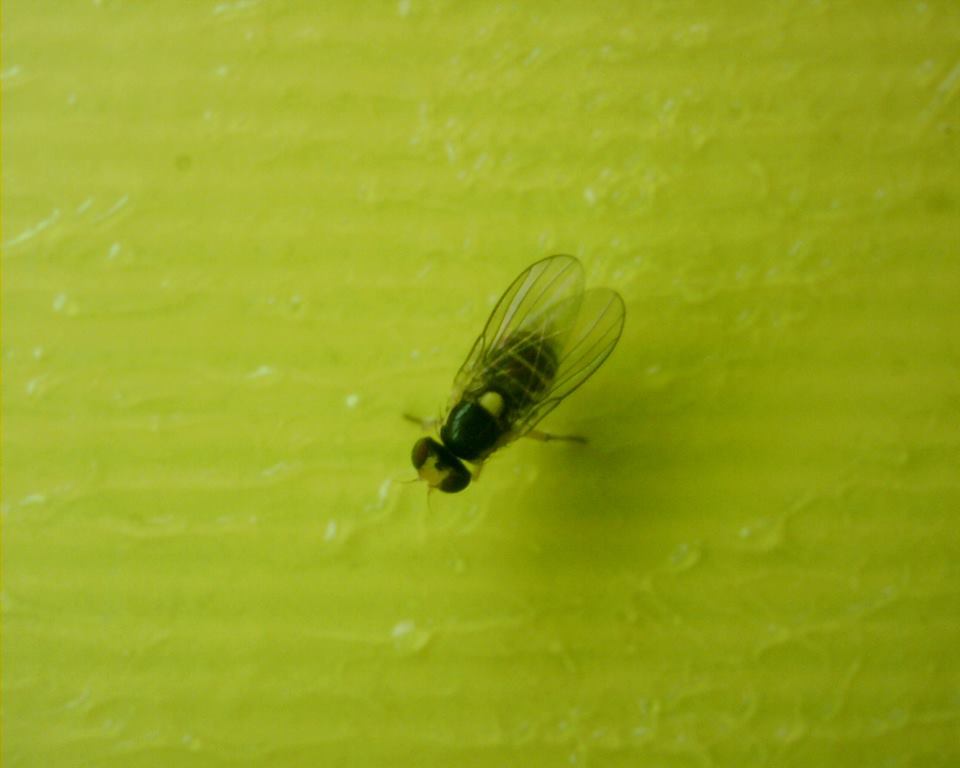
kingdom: Animalia
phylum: Arthropoda
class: Insecta
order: Diptera
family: Agromyzidae
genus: Liriomyza
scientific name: Liriomyza bryoniae
